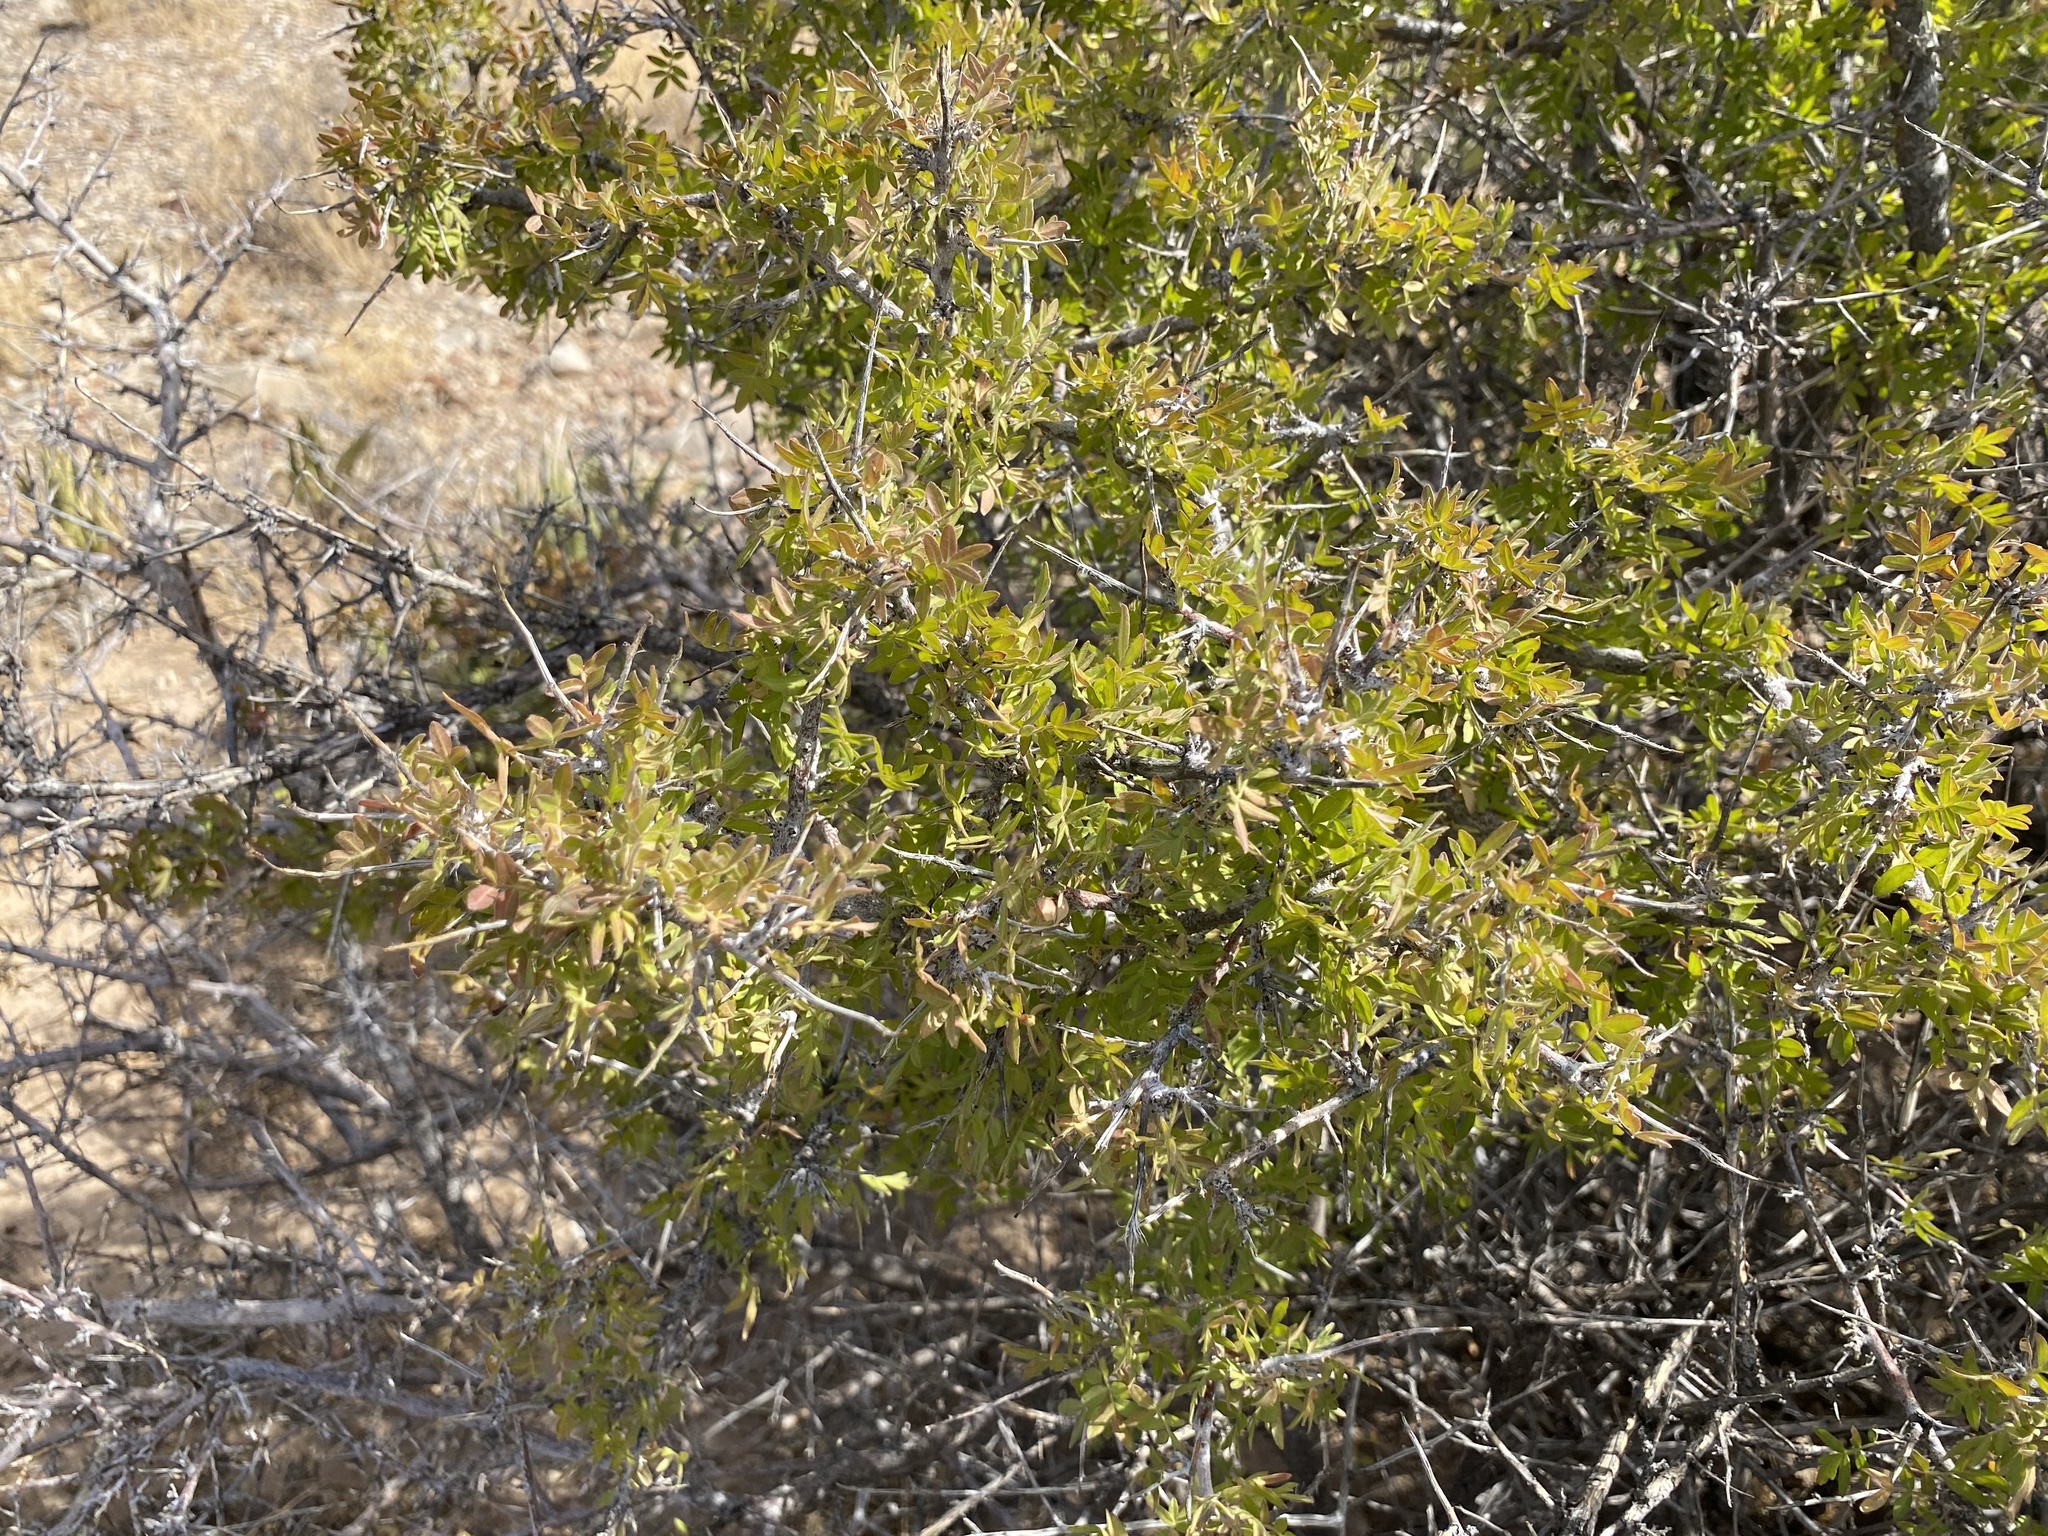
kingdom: Plantae
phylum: Tracheophyta
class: Magnoliopsida
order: Sapindales
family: Anacardiaceae
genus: Rhus
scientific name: Rhus microphylla
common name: Desert sumac
